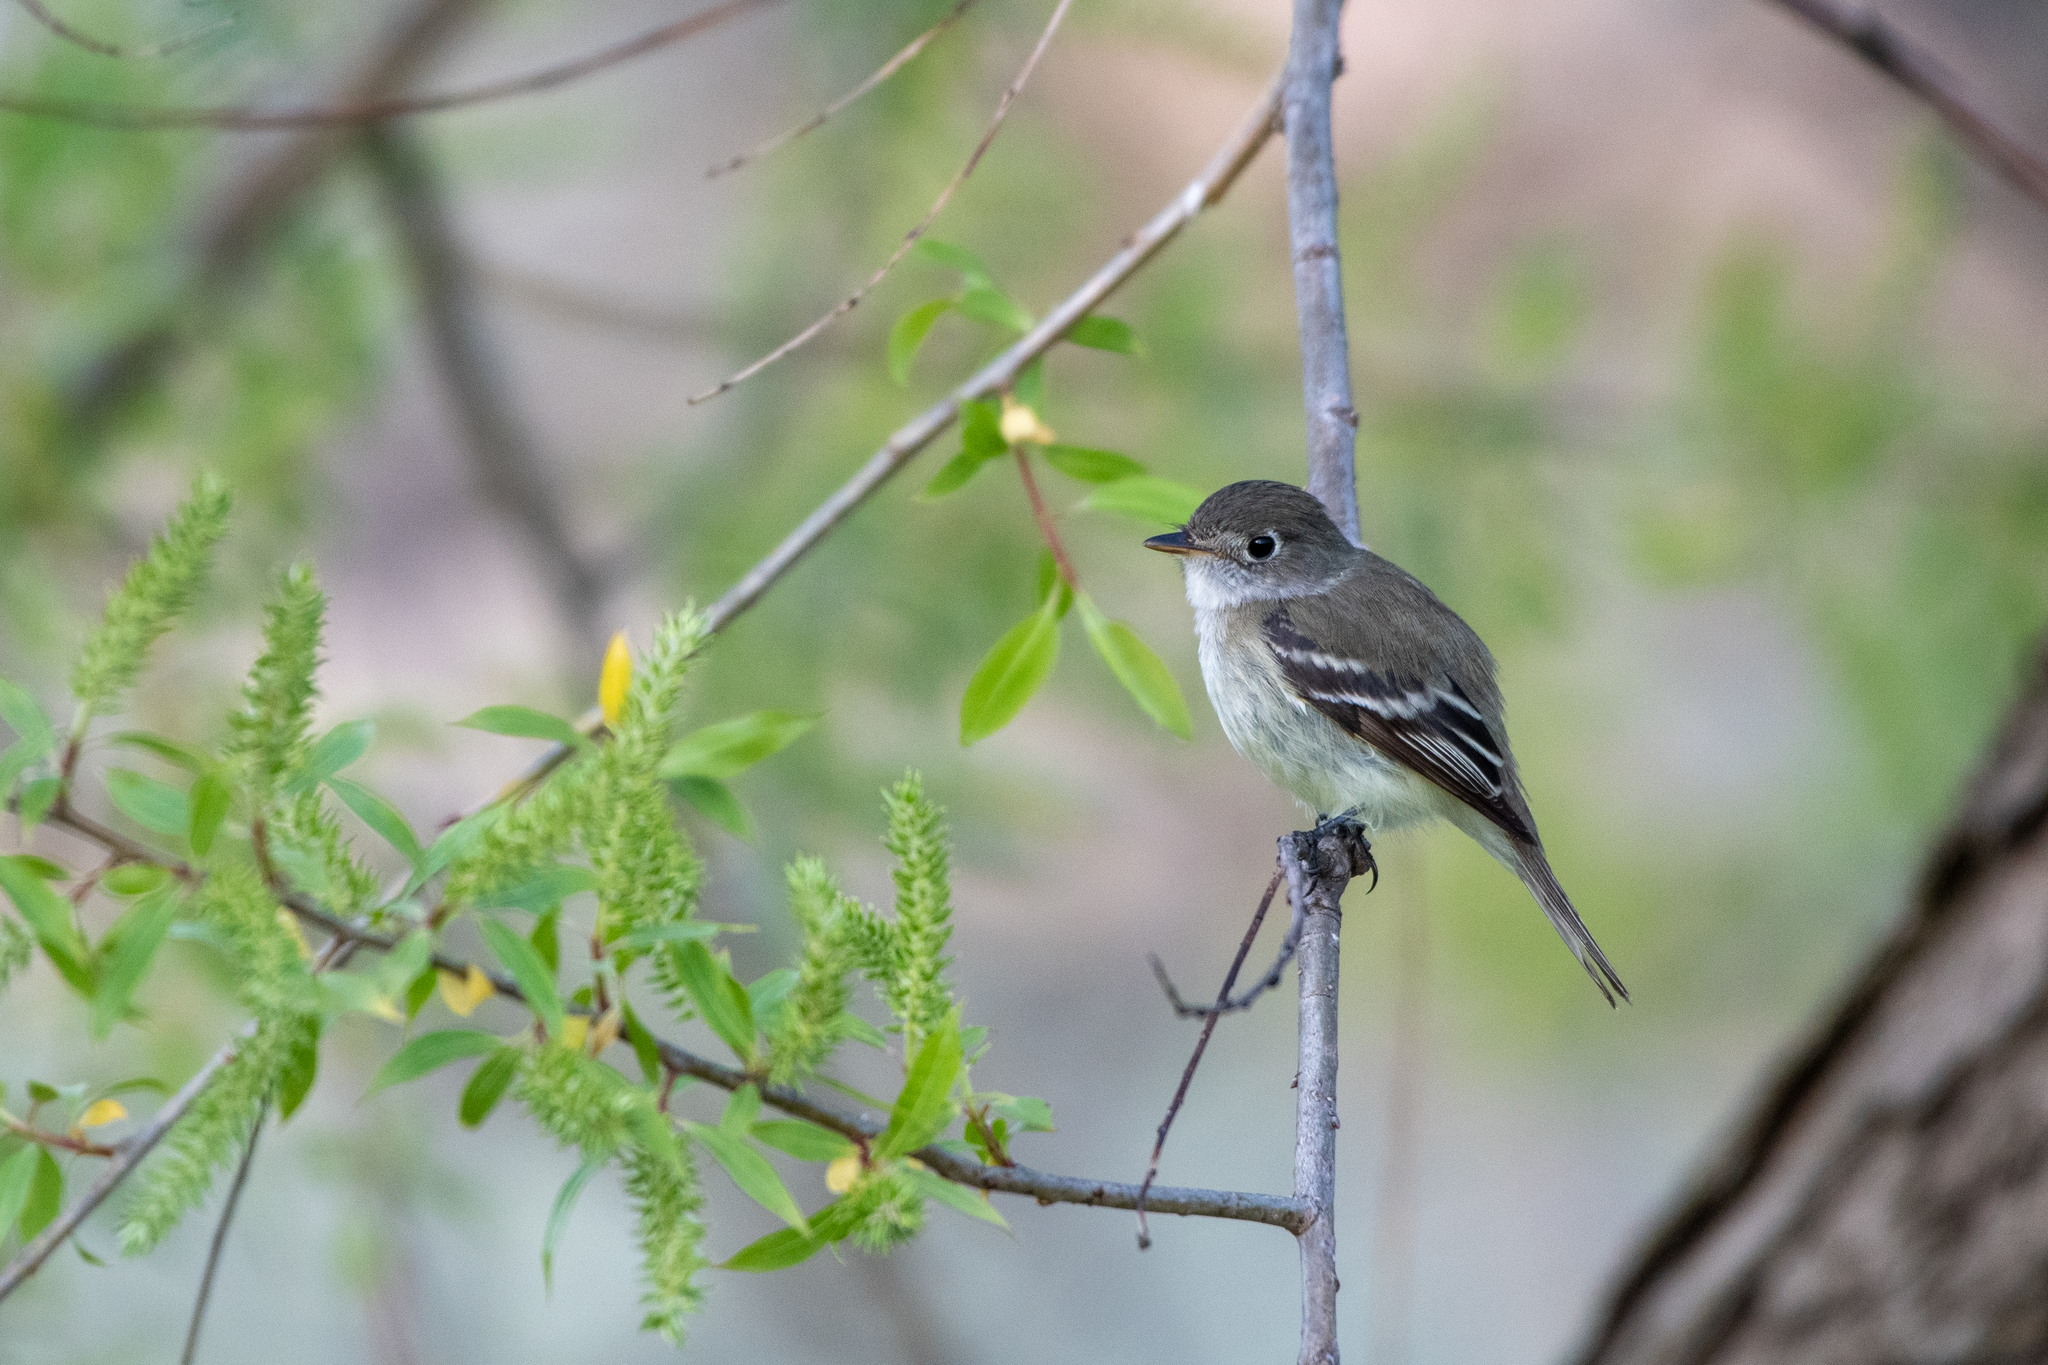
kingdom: Animalia
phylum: Chordata
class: Aves
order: Passeriformes
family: Tyrannidae
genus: Empidonax
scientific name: Empidonax minimus
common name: Least flycatcher
